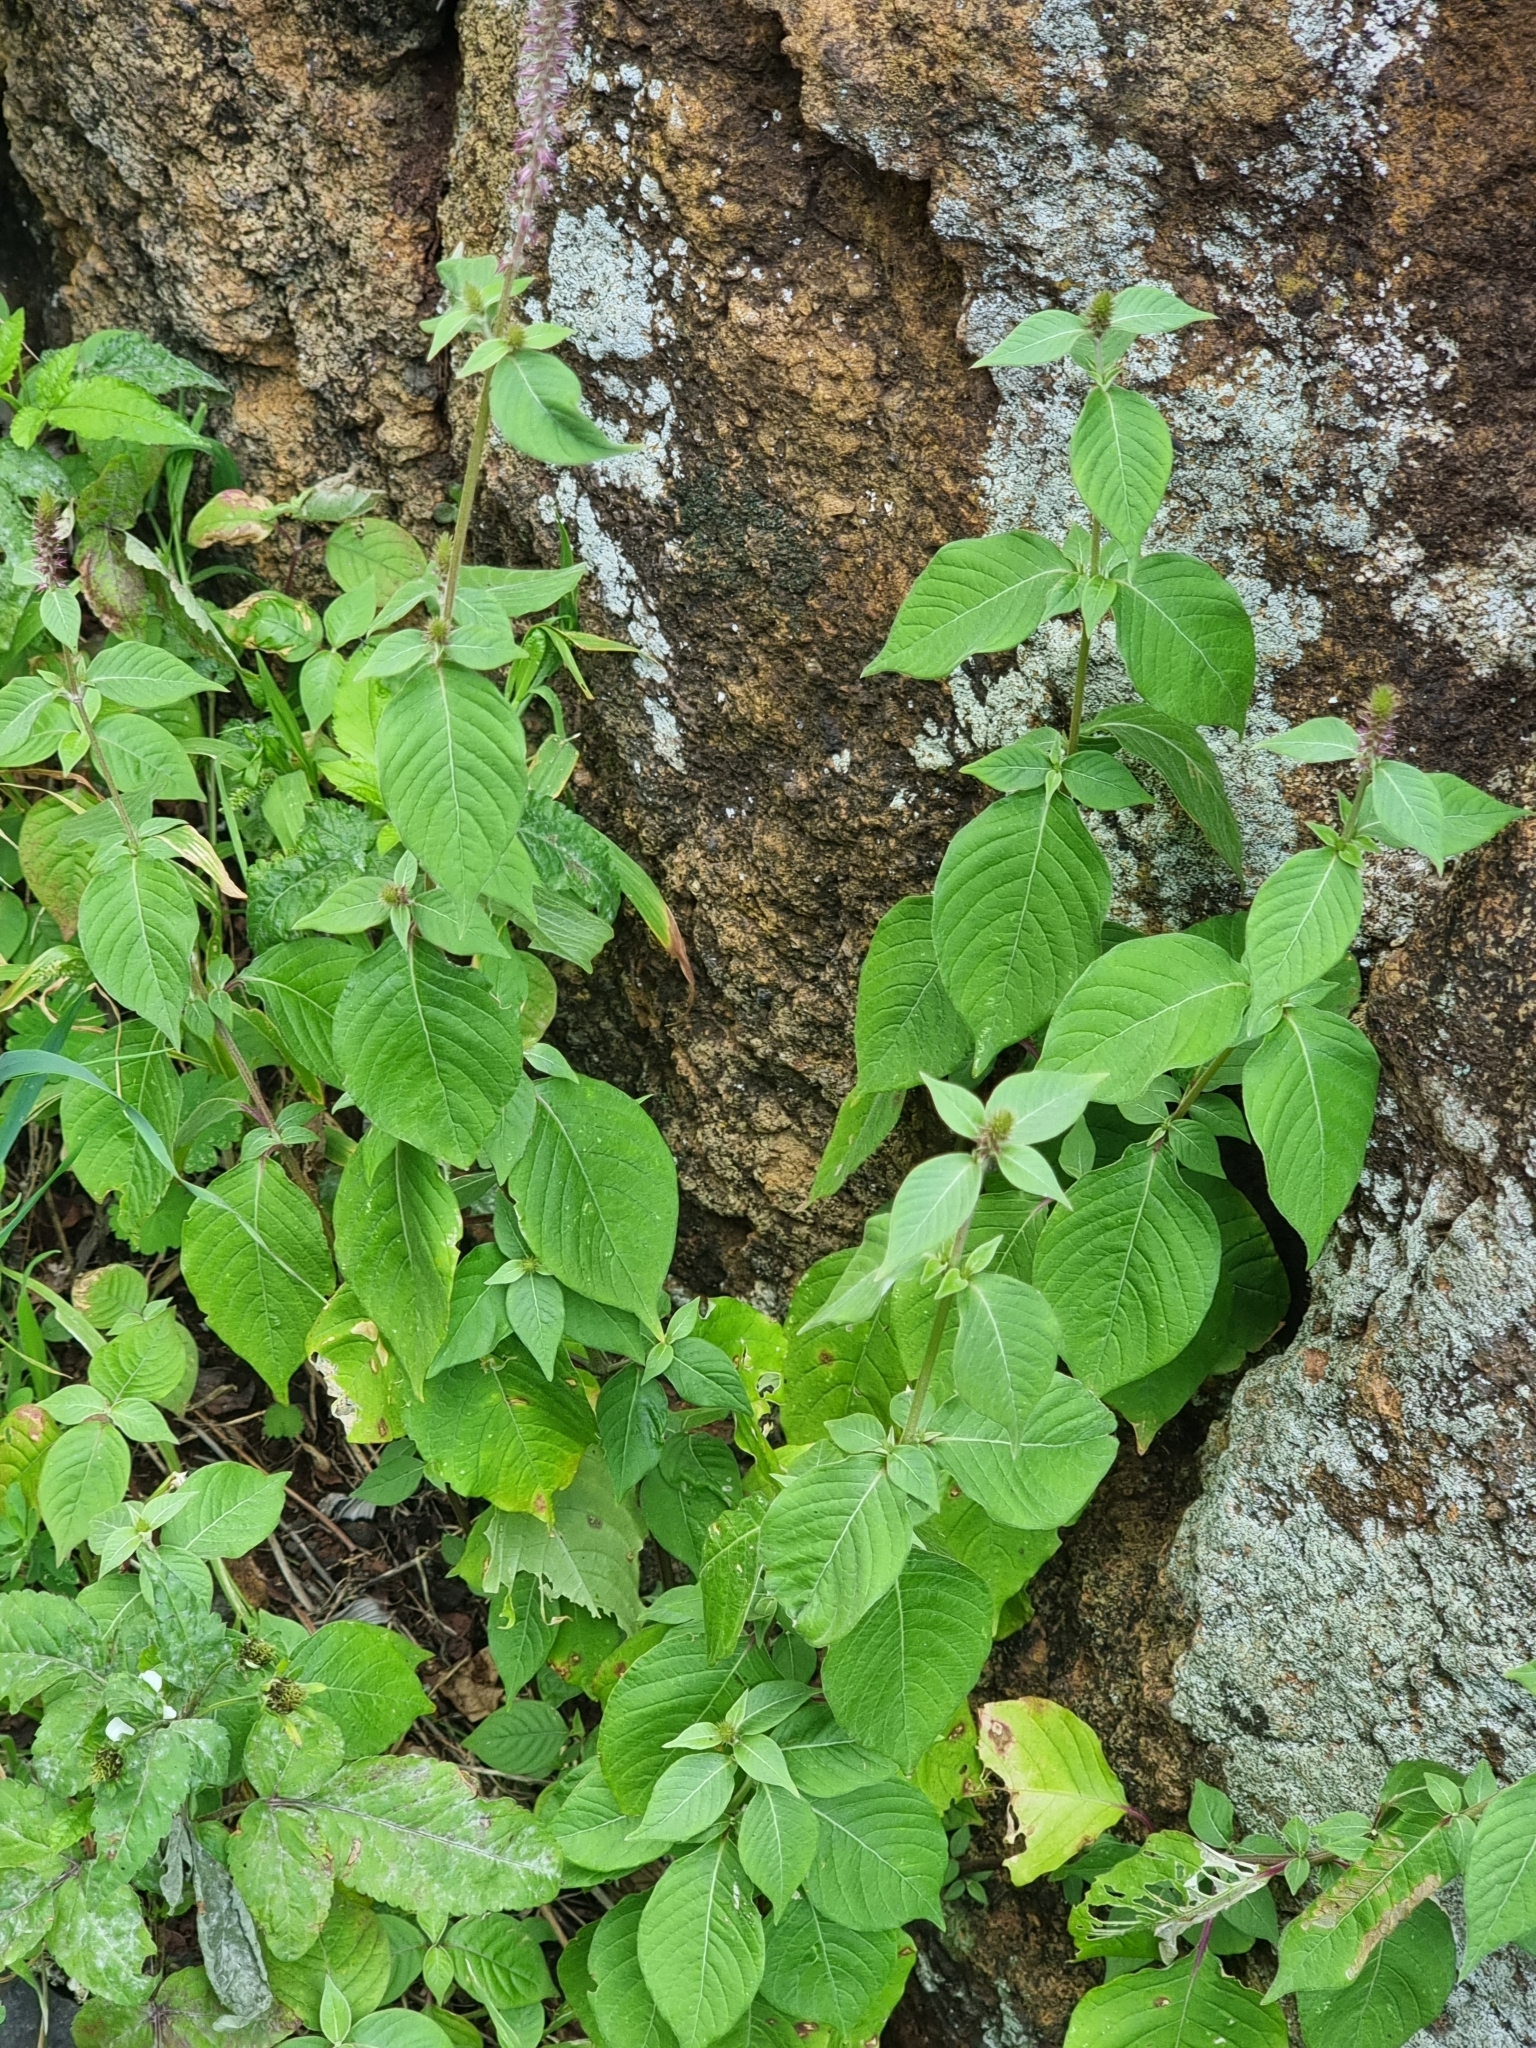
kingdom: Plantae
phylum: Tracheophyta
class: Magnoliopsida
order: Caryophyllales
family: Amaranthaceae
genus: Achyranthes
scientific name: Achyranthes aspera
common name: Devil's horsewhip
